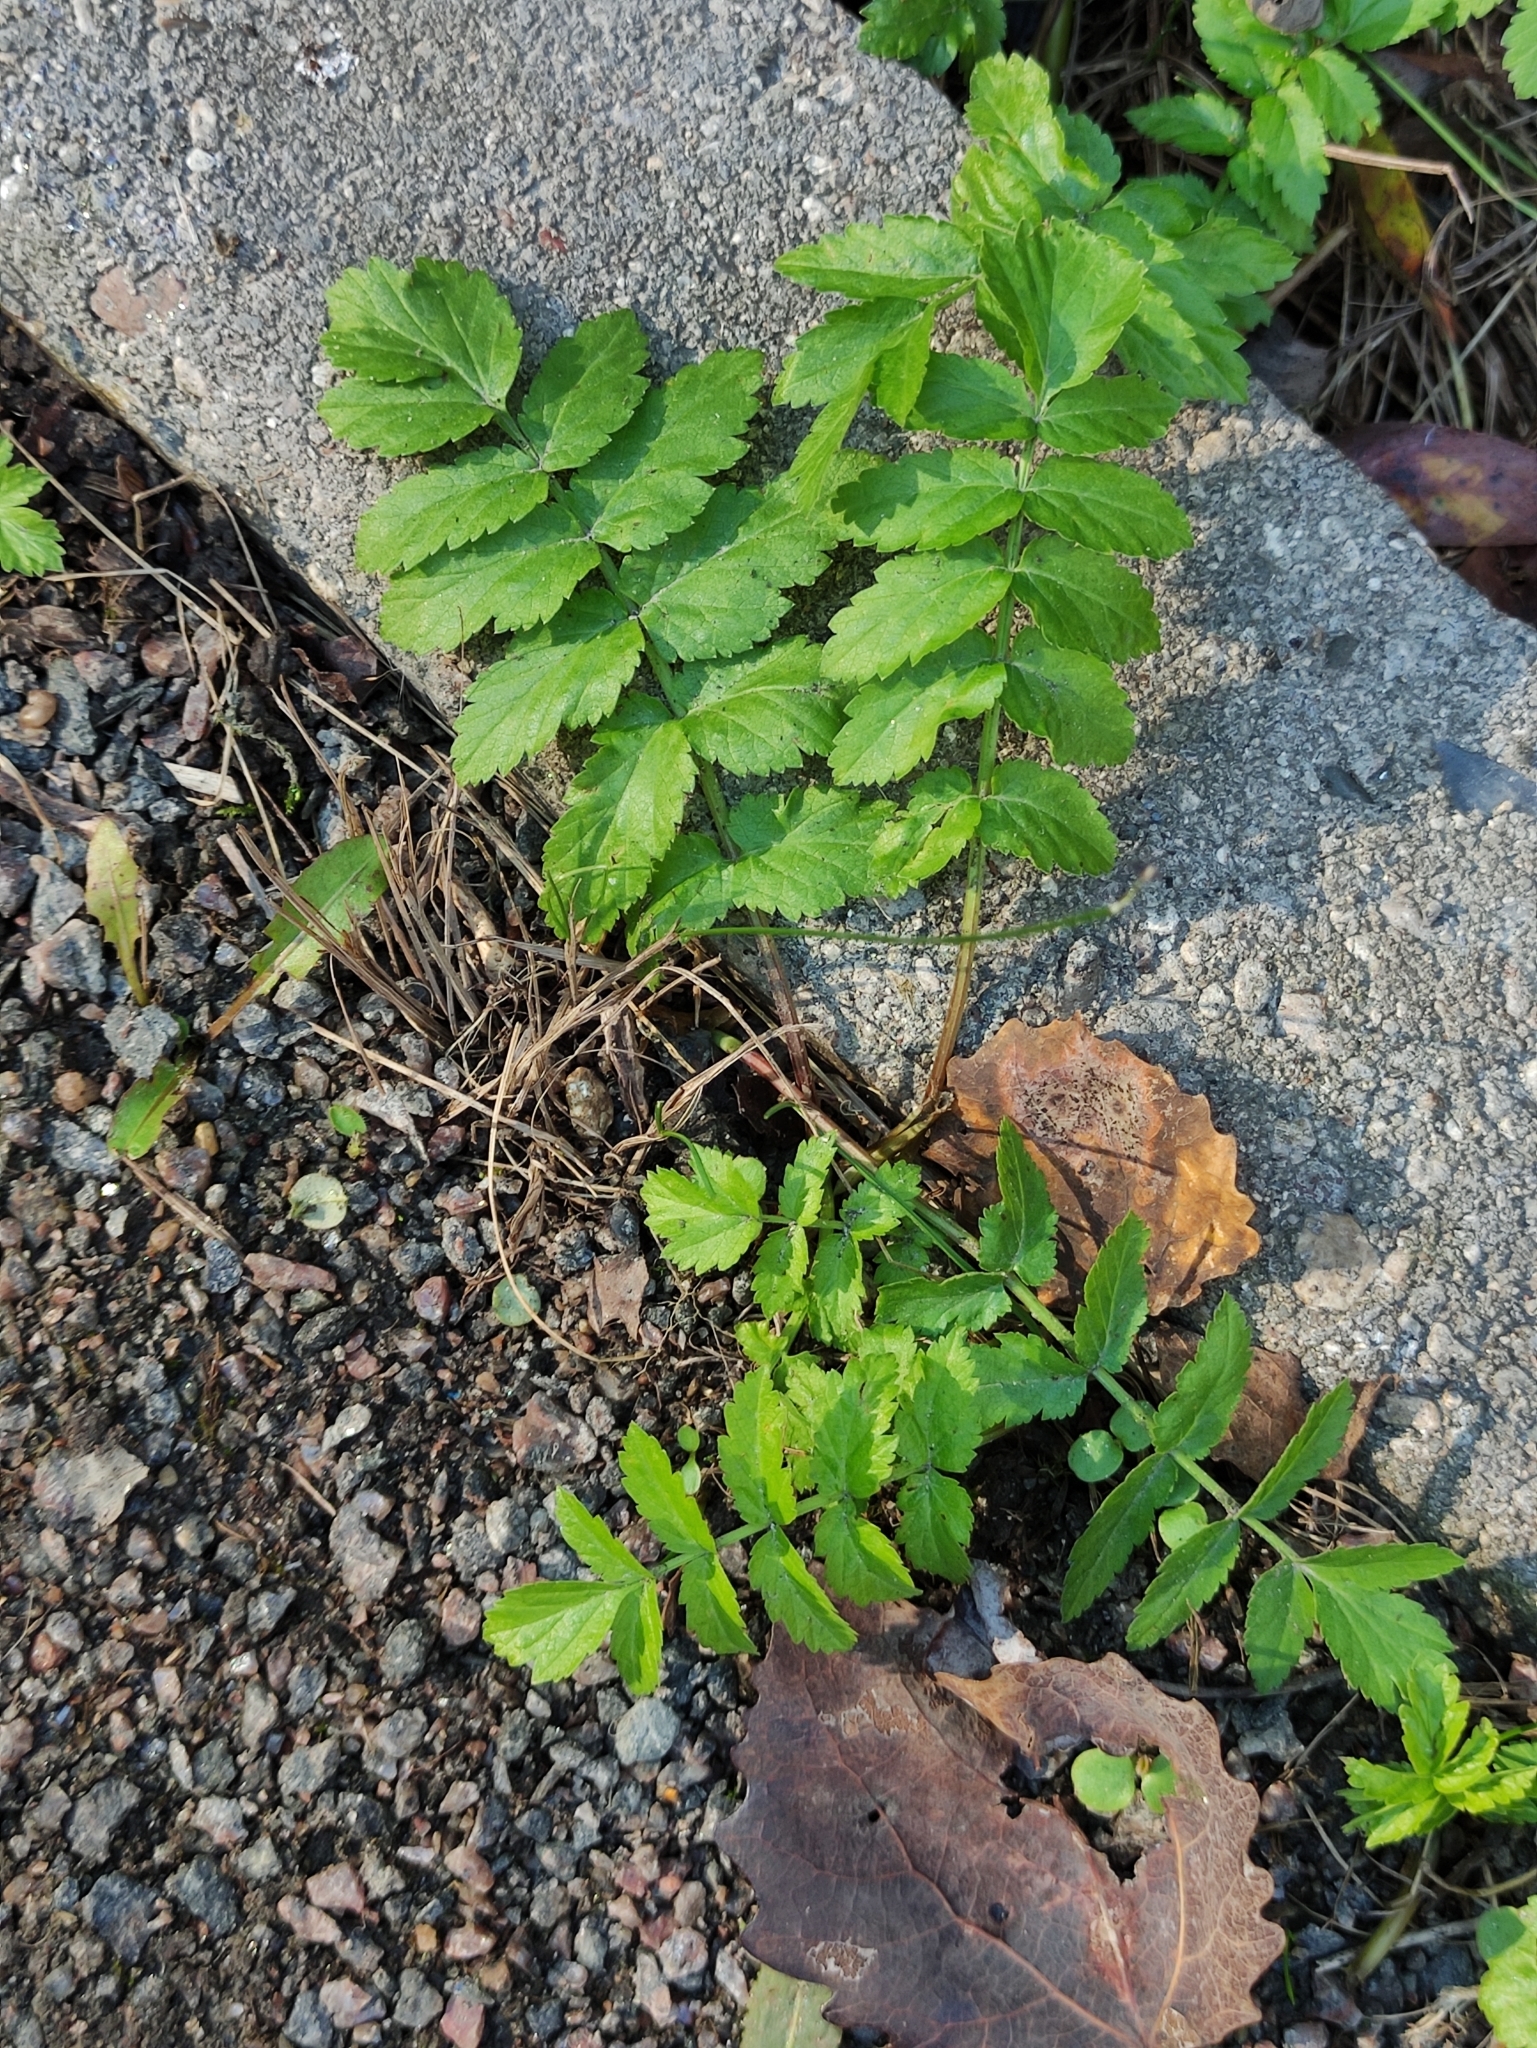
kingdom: Plantae
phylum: Tracheophyta
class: Magnoliopsida
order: Apiales
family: Apiaceae
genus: Pastinaca
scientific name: Pastinaca sativa
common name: Wild parsnip
